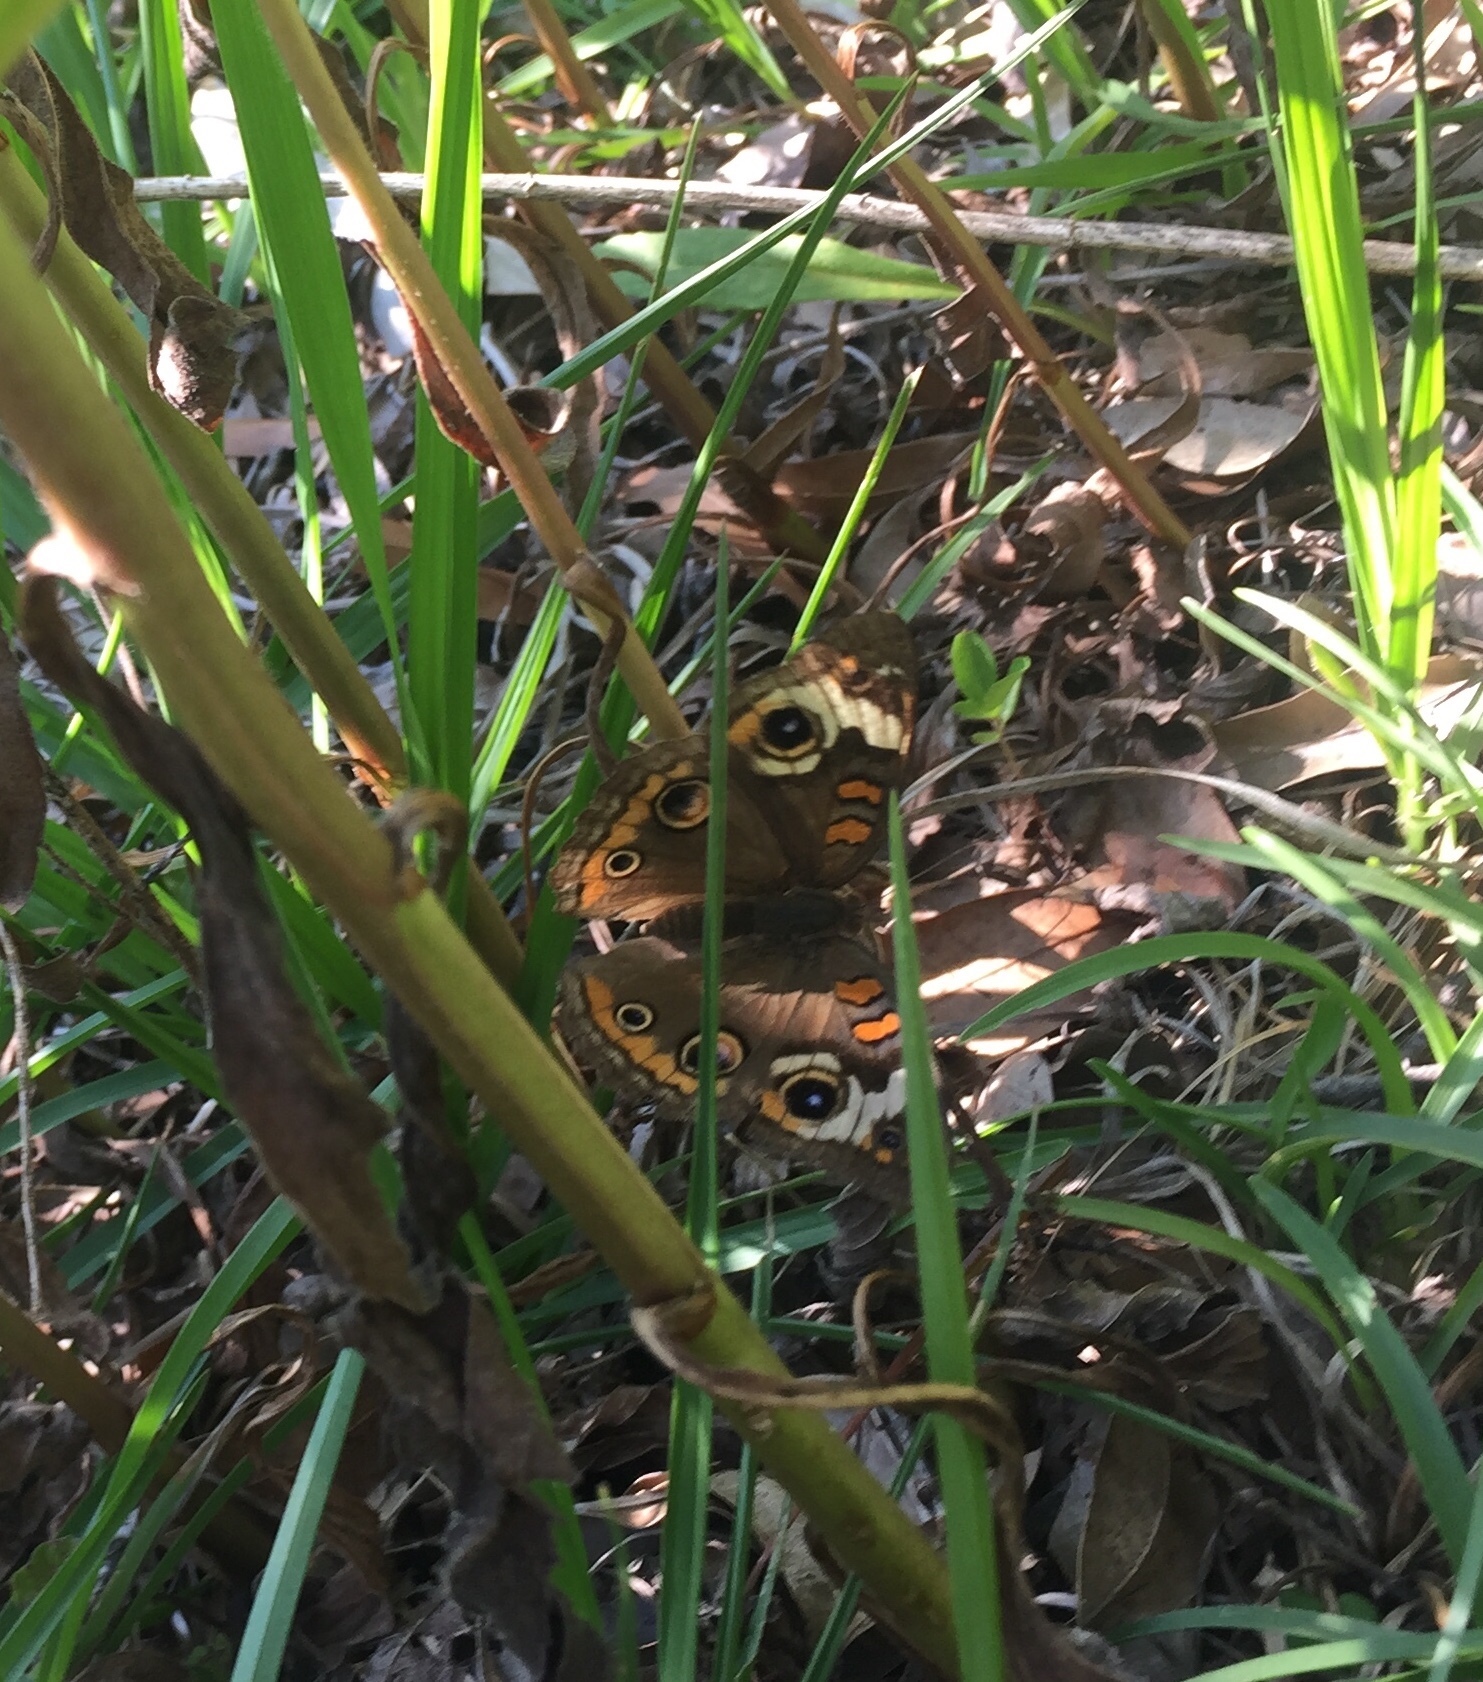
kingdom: Animalia
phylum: Arthropoda
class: Insecta
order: Lepidoptera
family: Nymphalidae
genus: Junonia
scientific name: Junonia coenia
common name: Common buckeye
